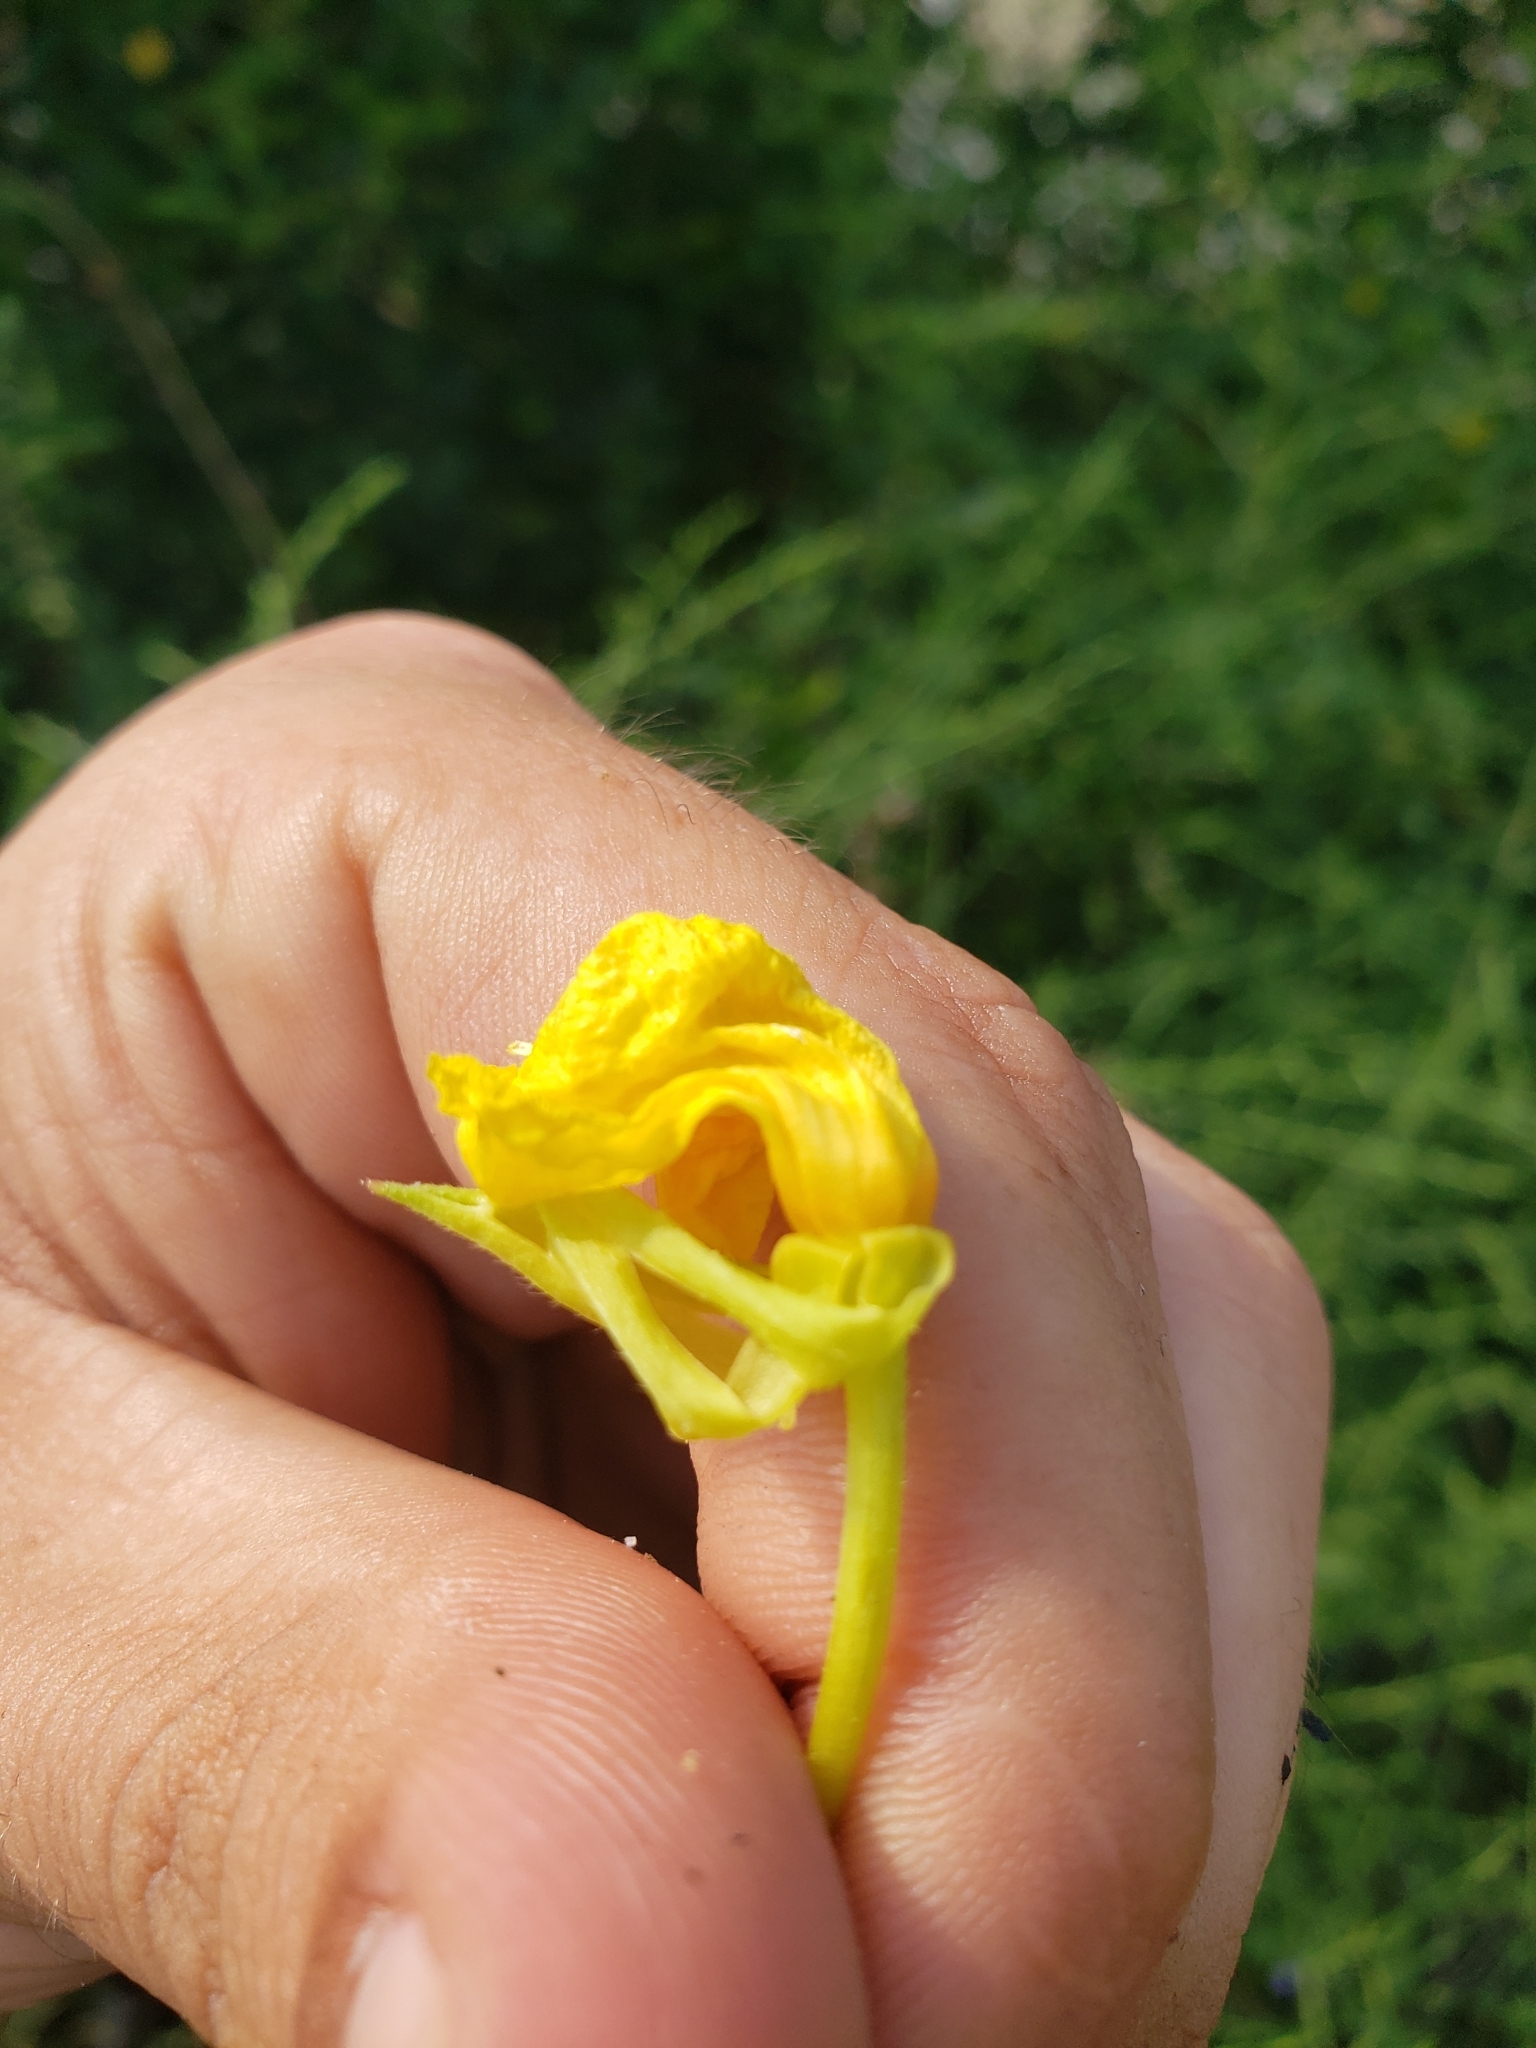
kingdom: Plantae
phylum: Tracheophyta
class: Magnoliopsida
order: Myrtales
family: Onagraceae
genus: Oenothera
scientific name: Oenothera biennis
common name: Common evening-primrose
